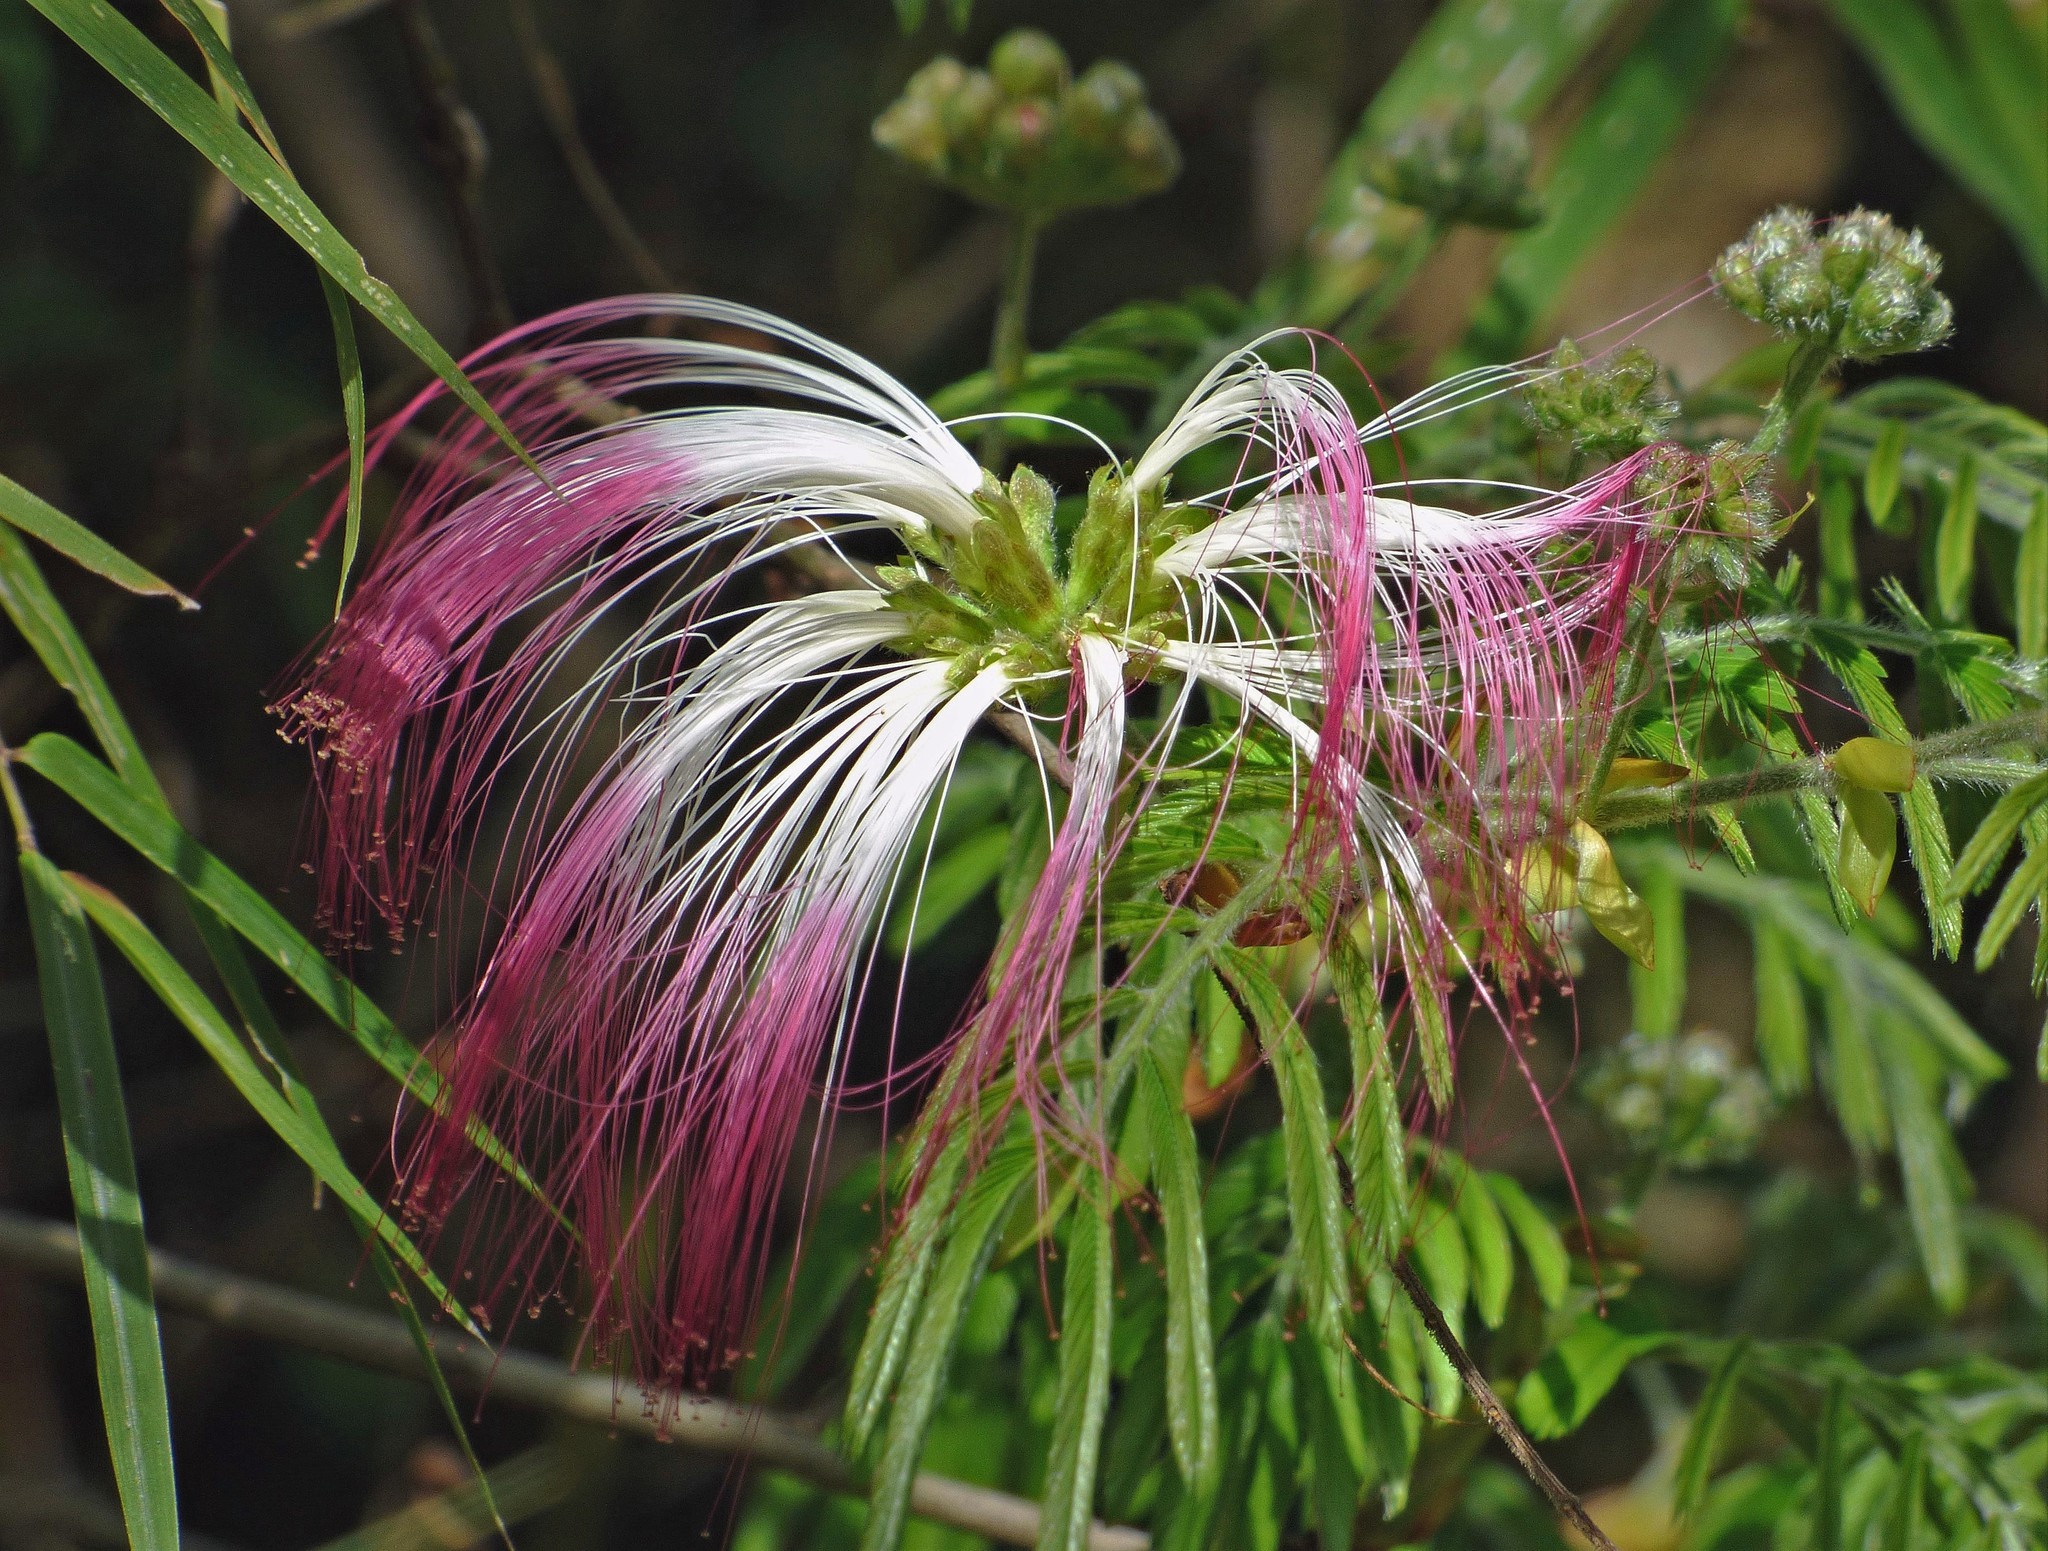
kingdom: Plantae
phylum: Tracheophyta
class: Magnoliopsida
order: Fabales
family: Fabaceae
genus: Calliandra
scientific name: Calliandra foliolosa
